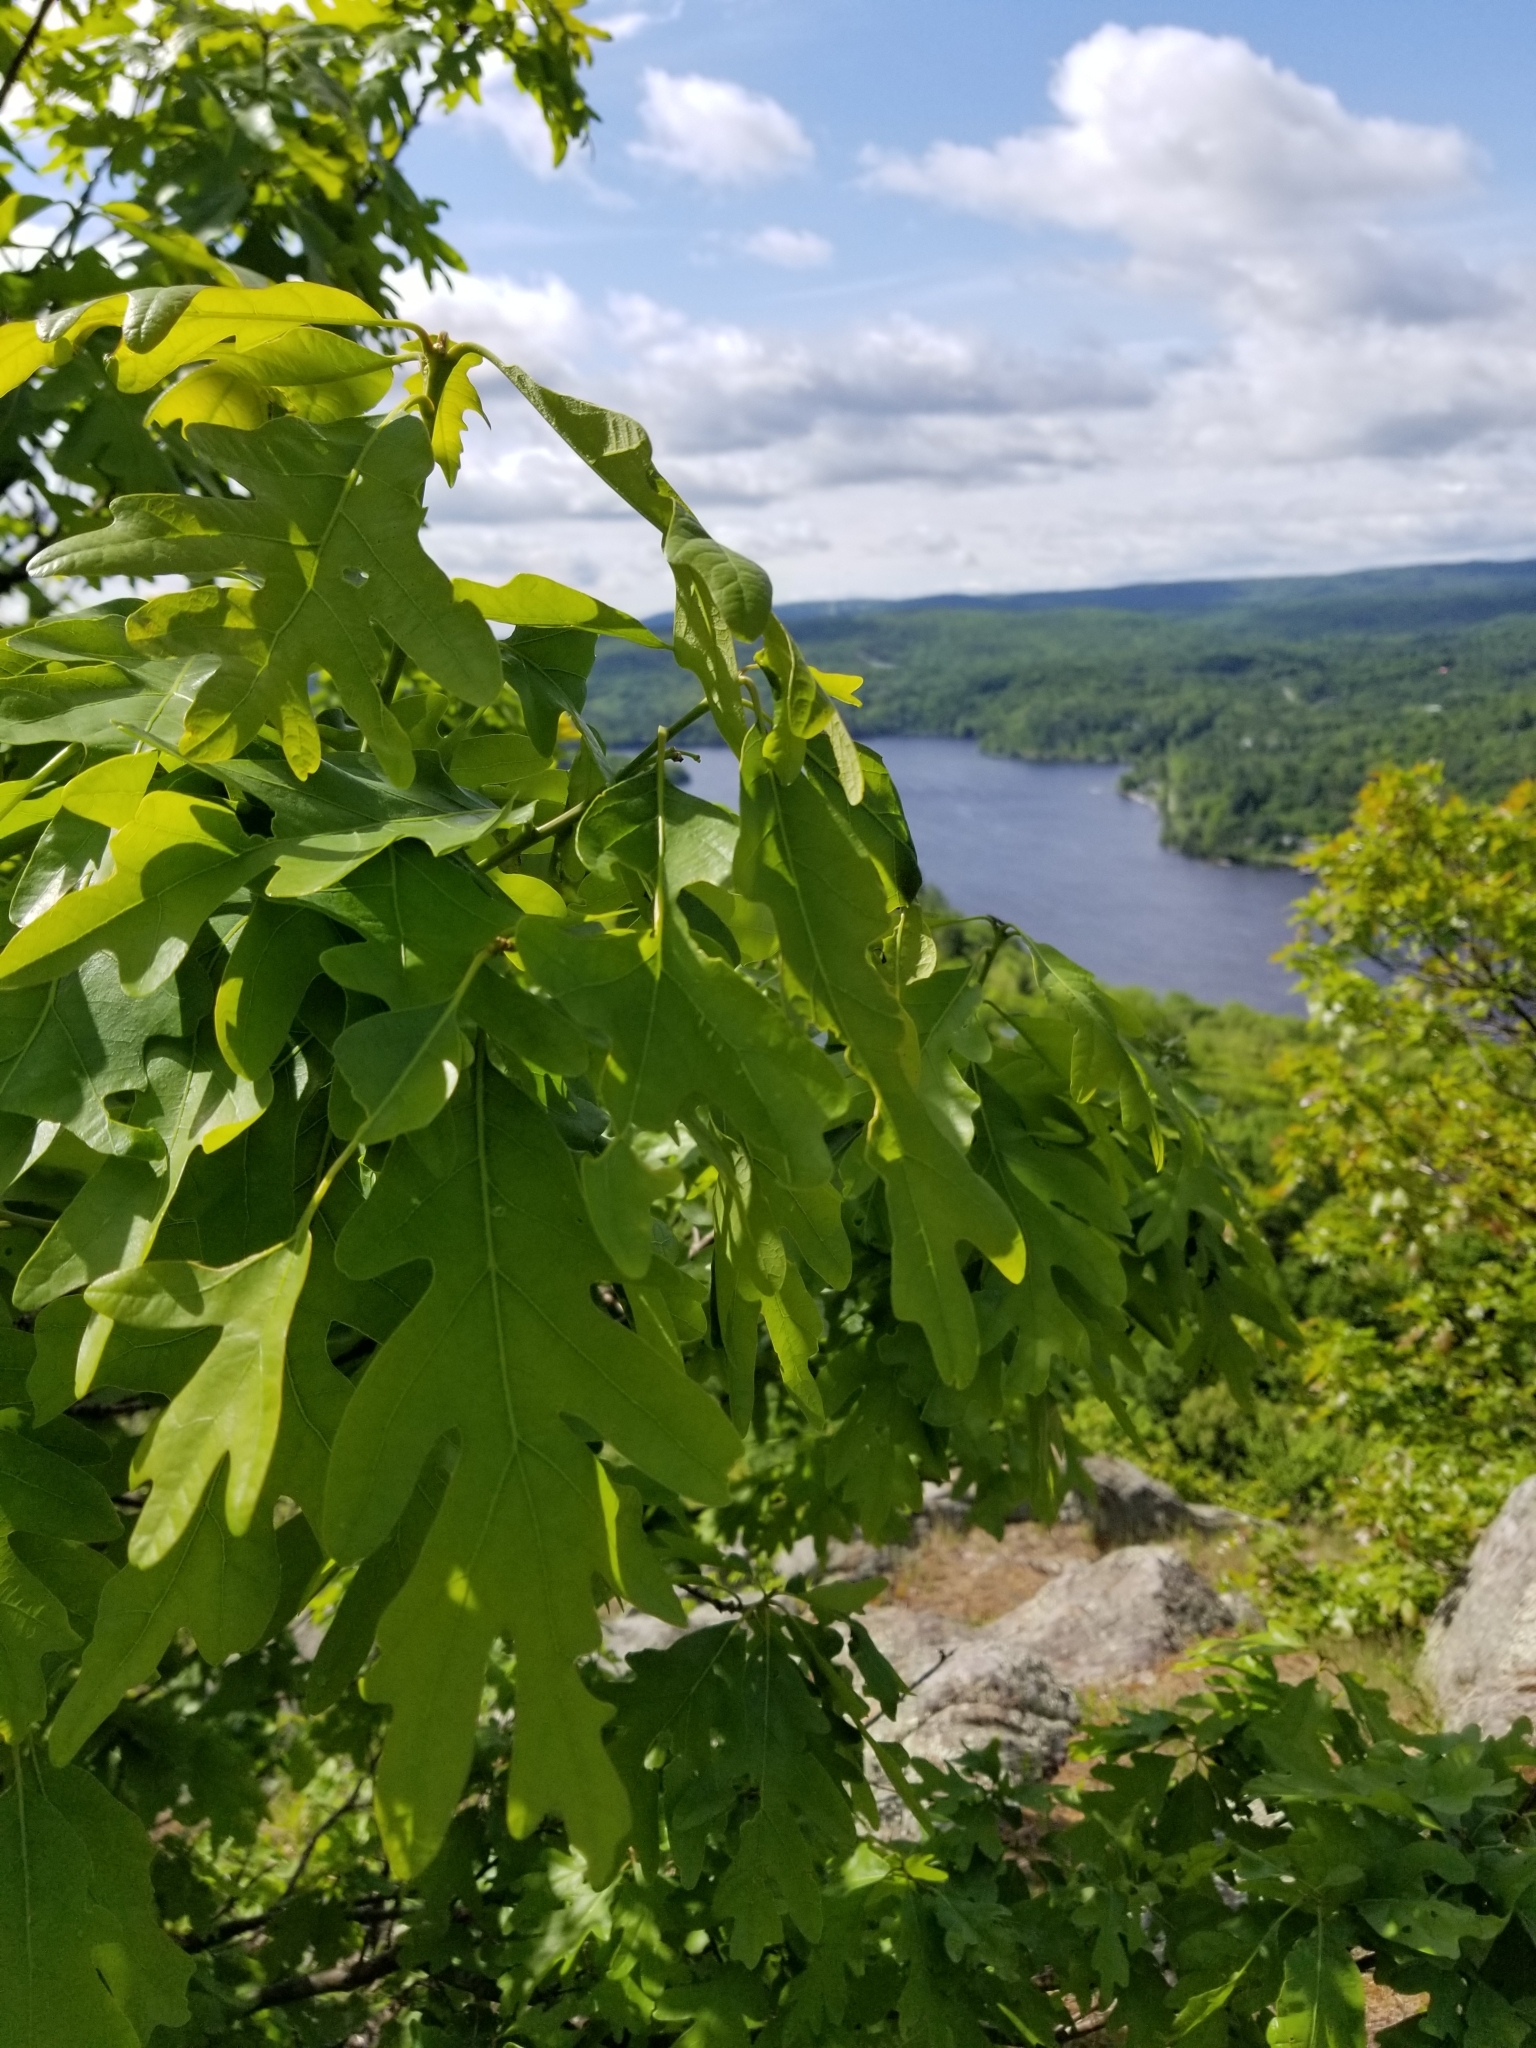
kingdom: Plantae
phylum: Tracheophyta
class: Magnoliopsida
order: Fagales
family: Fagaceae
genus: Quercus
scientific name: Quercus alba
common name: White oak
